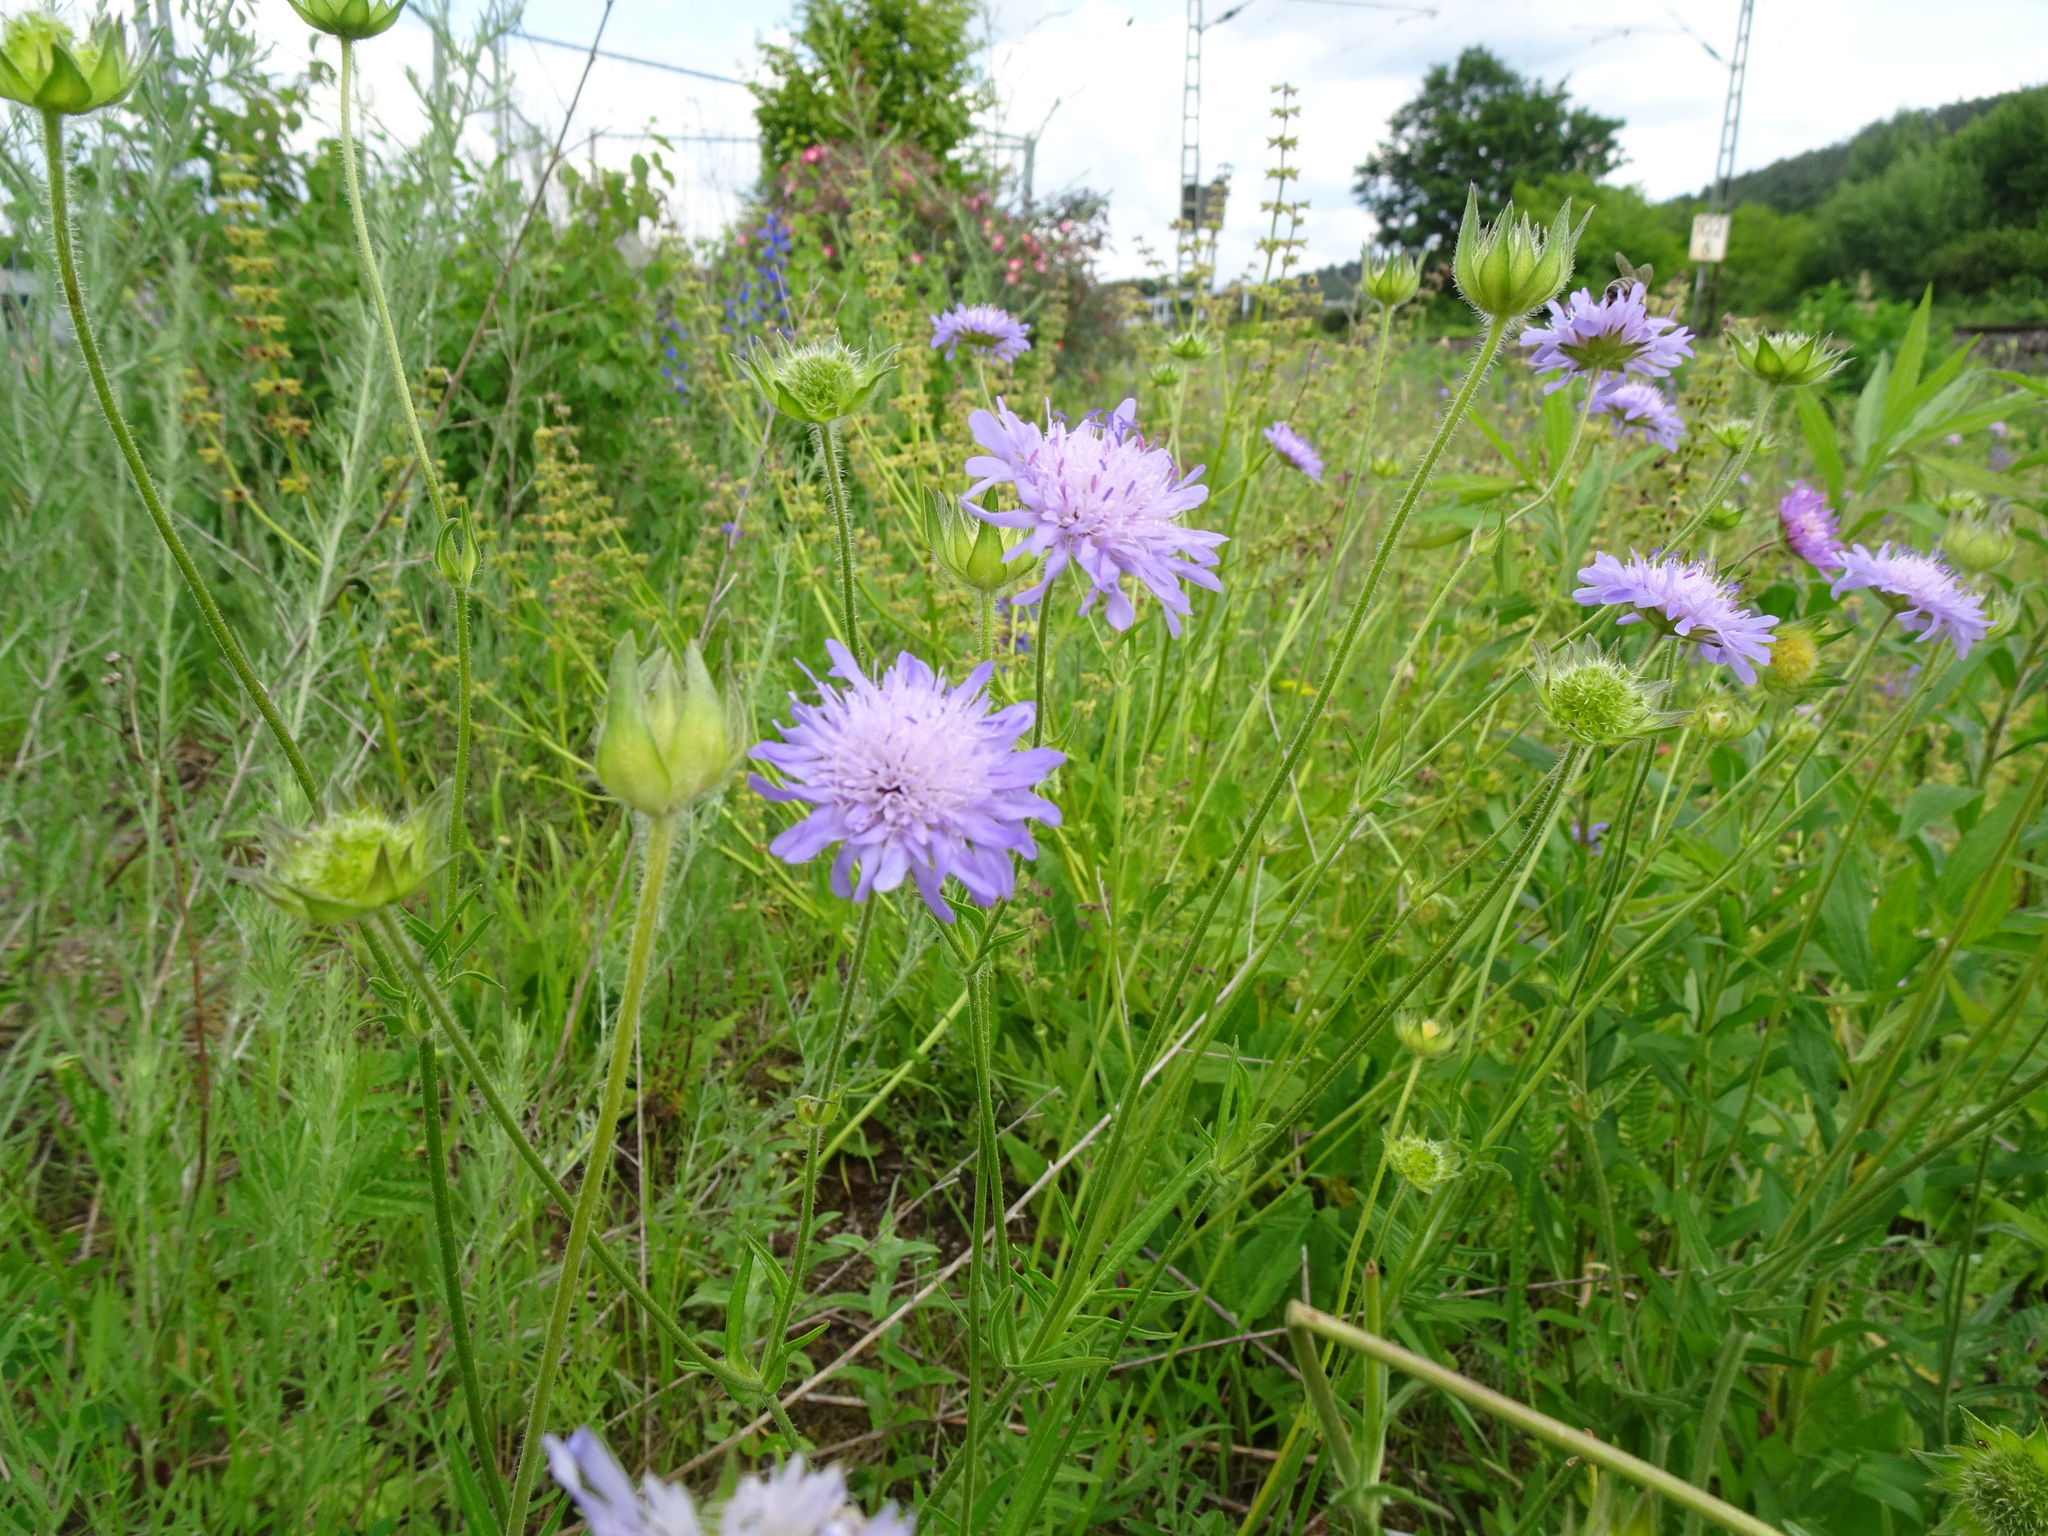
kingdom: Plantae
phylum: Tracheophyta
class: Magnoliopsida
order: Dipsacales
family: Caprifoliaceae
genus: Knautia
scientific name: Knautia arvensis
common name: Field scabiosa
